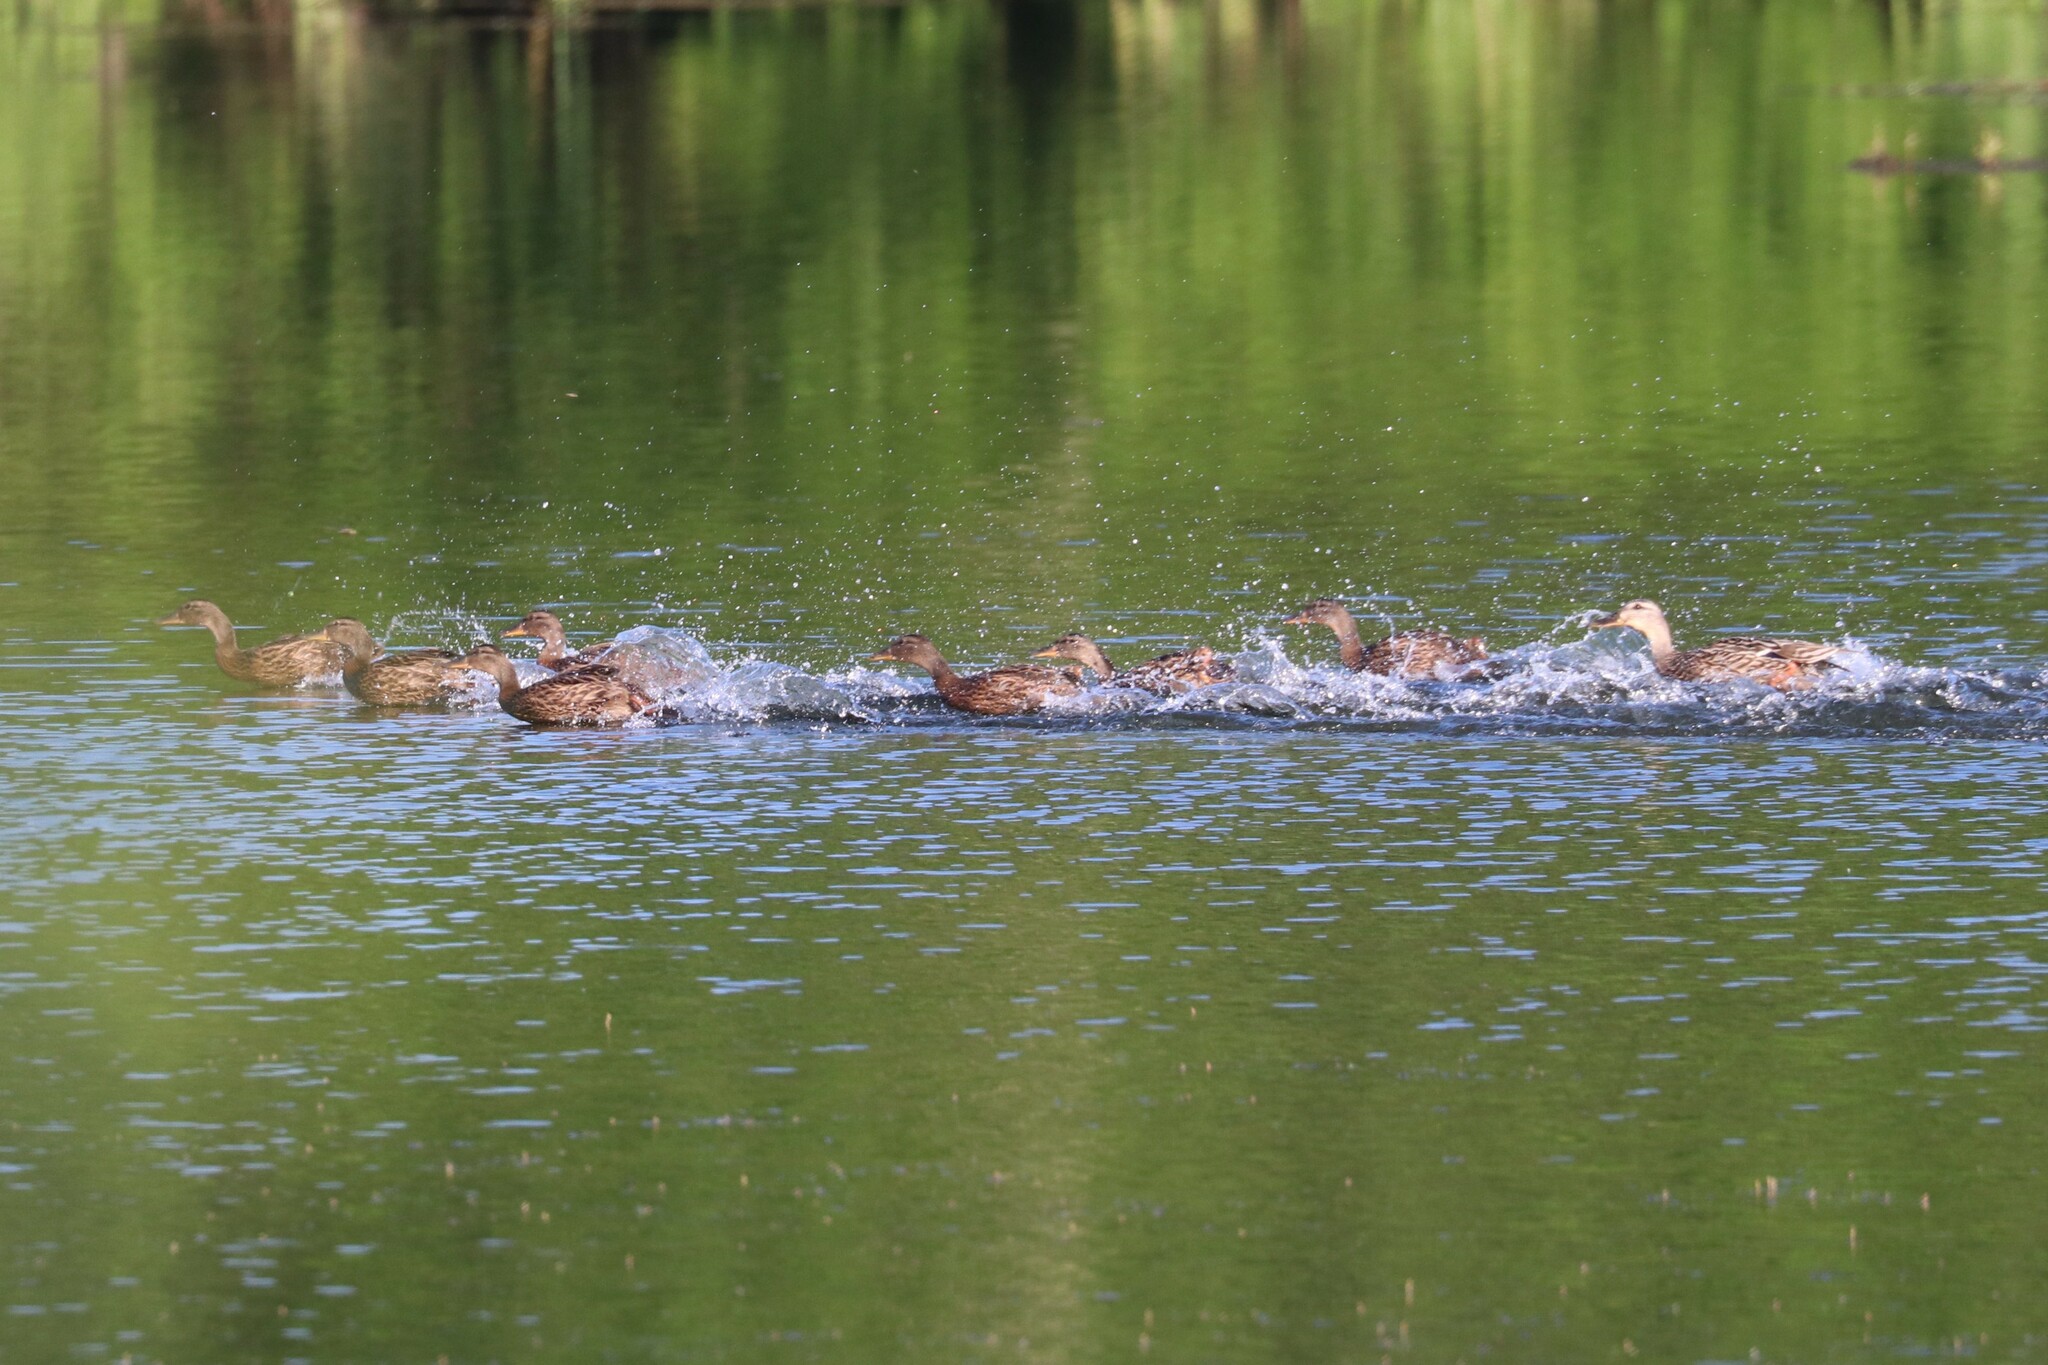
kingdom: Animalia
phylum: Chordata
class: Aves
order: Anseriformes
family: Anatidae
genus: Anas
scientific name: Anas platyrhynchos
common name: Mallard
